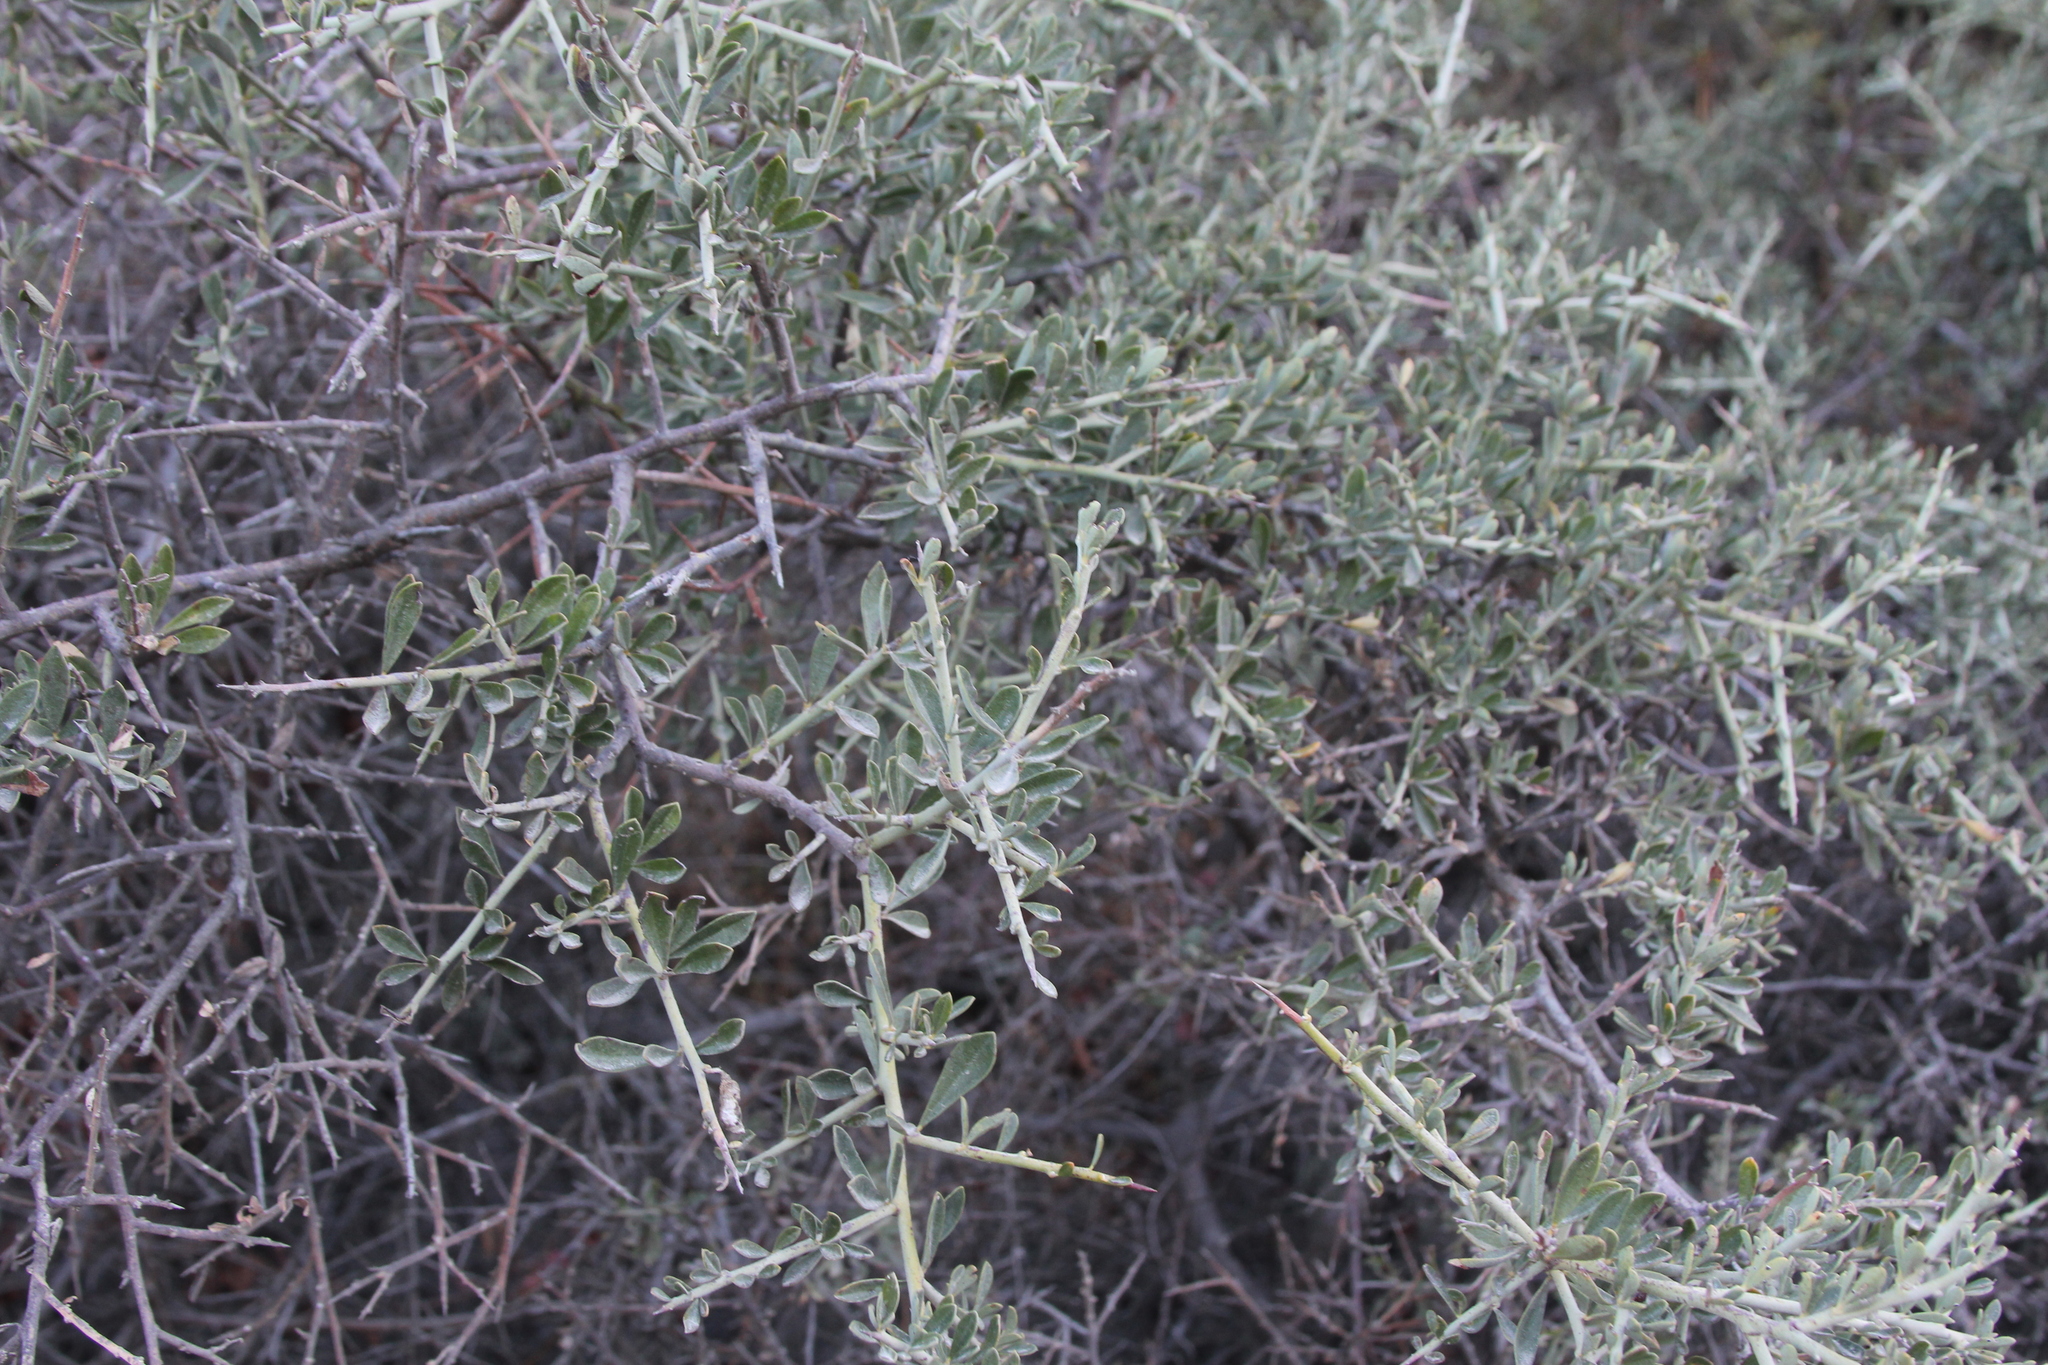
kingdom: Plantae
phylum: Tracheophyta
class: Magnoliopsida
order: Fabales
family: Fabaceae
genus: Pickeringia
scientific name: Pickeringia montana
